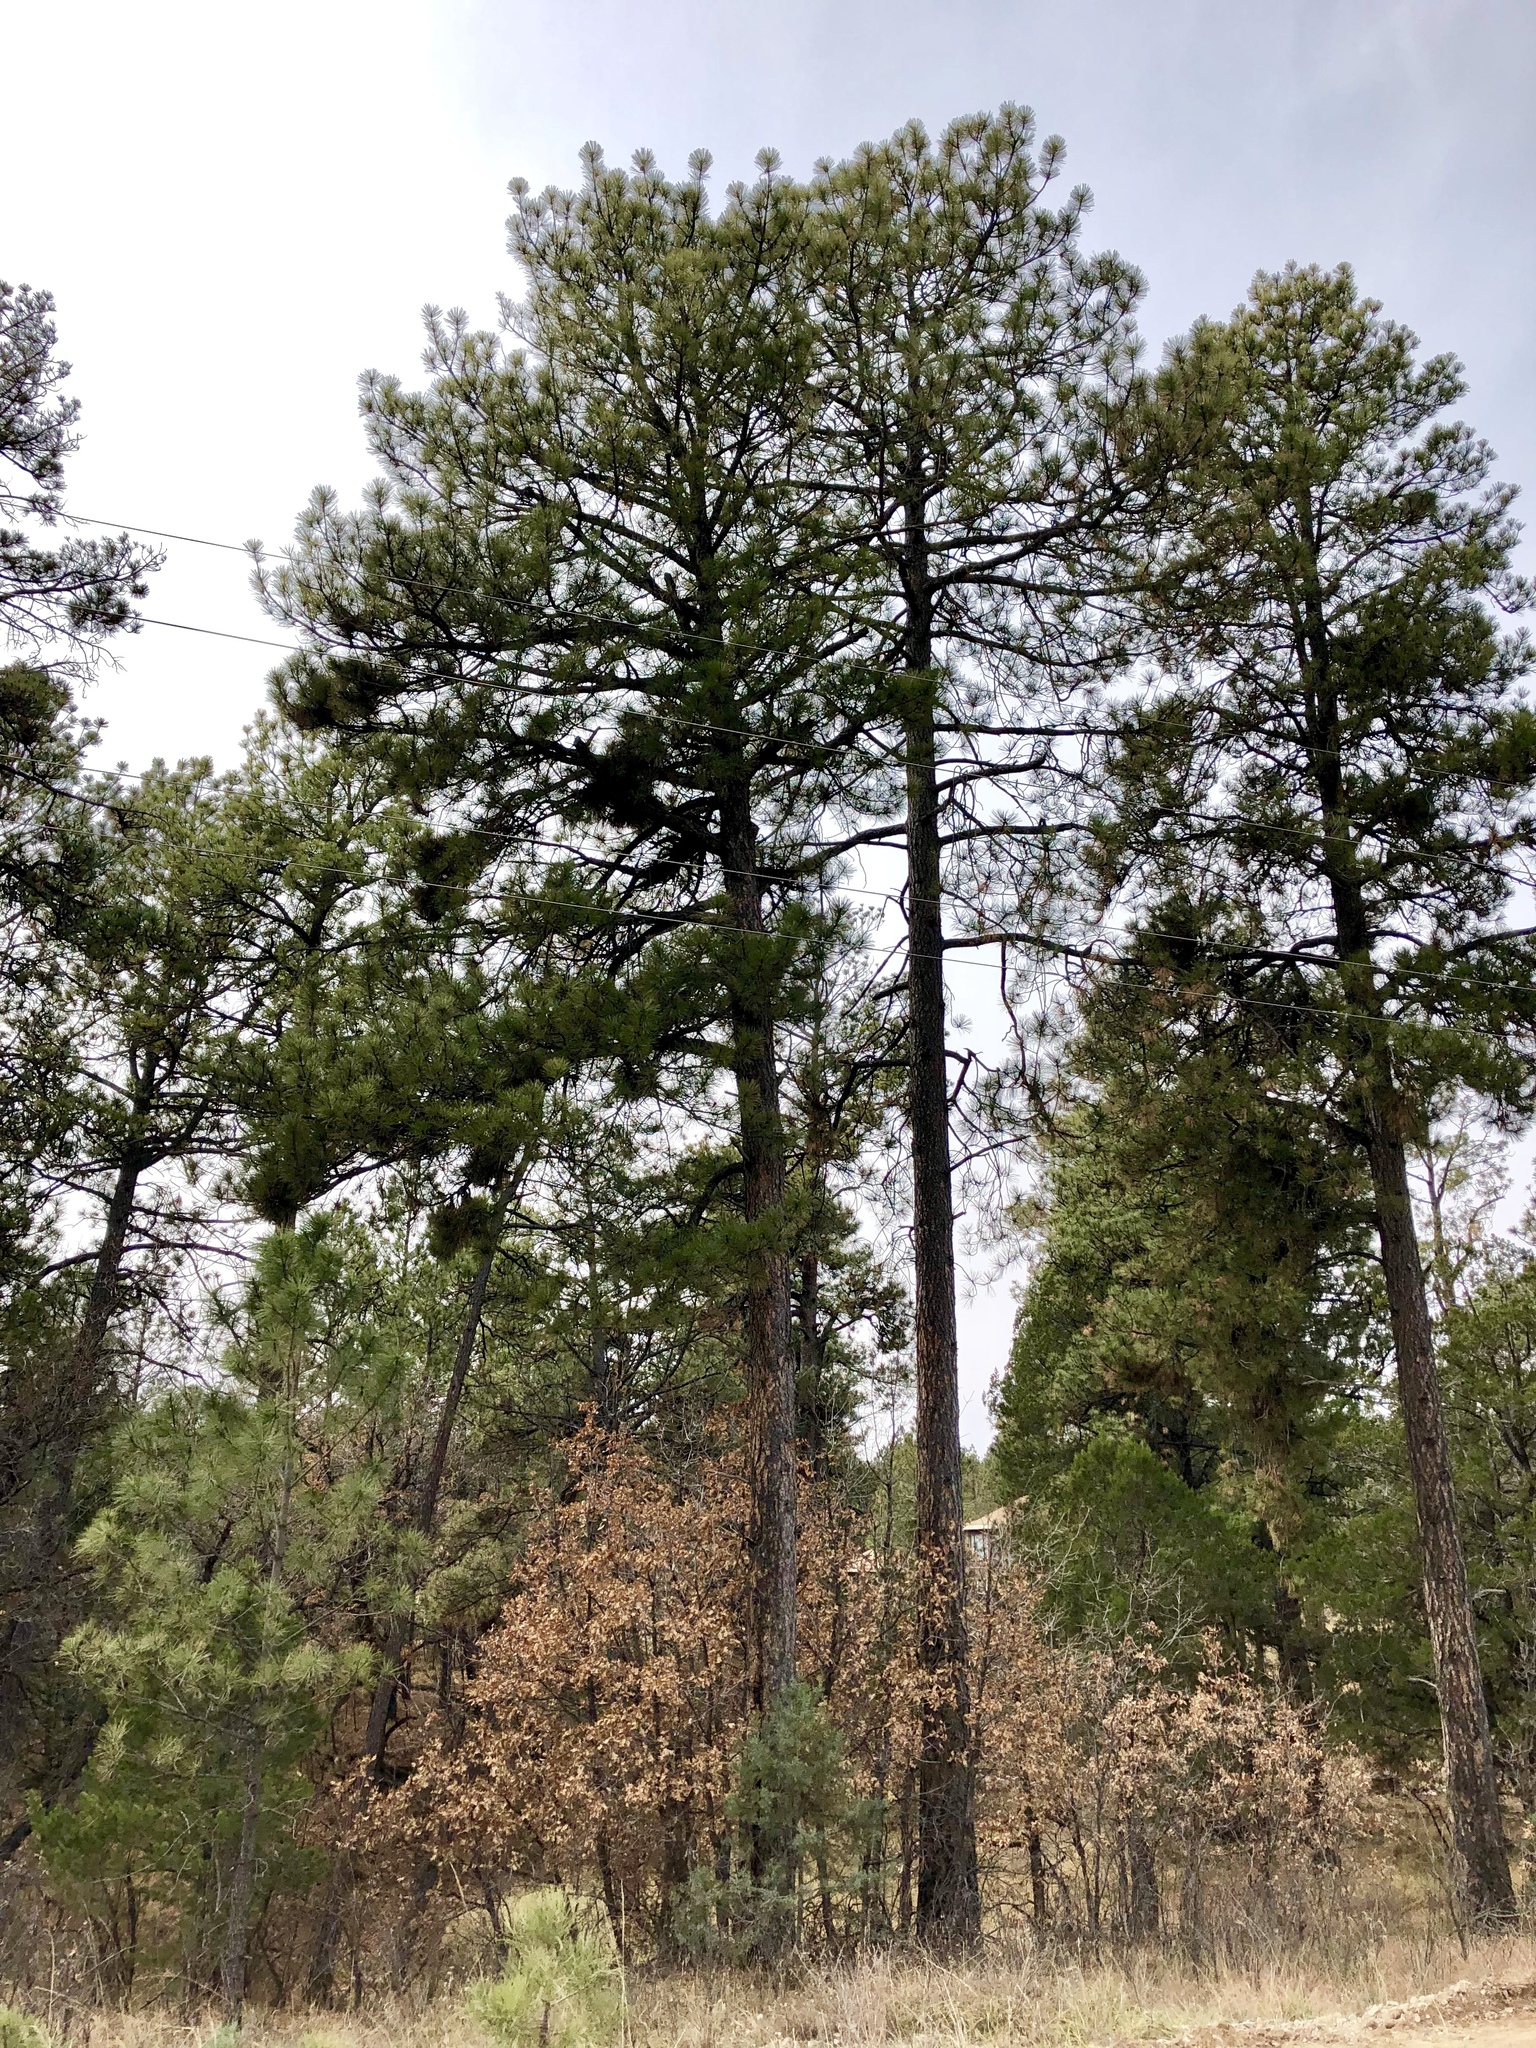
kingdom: Plantae
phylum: Tracheophyta
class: Pinopsida
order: Pinales
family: Pinaceae
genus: Pinus
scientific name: Pinus ponderosa
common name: Western yellow-pine
